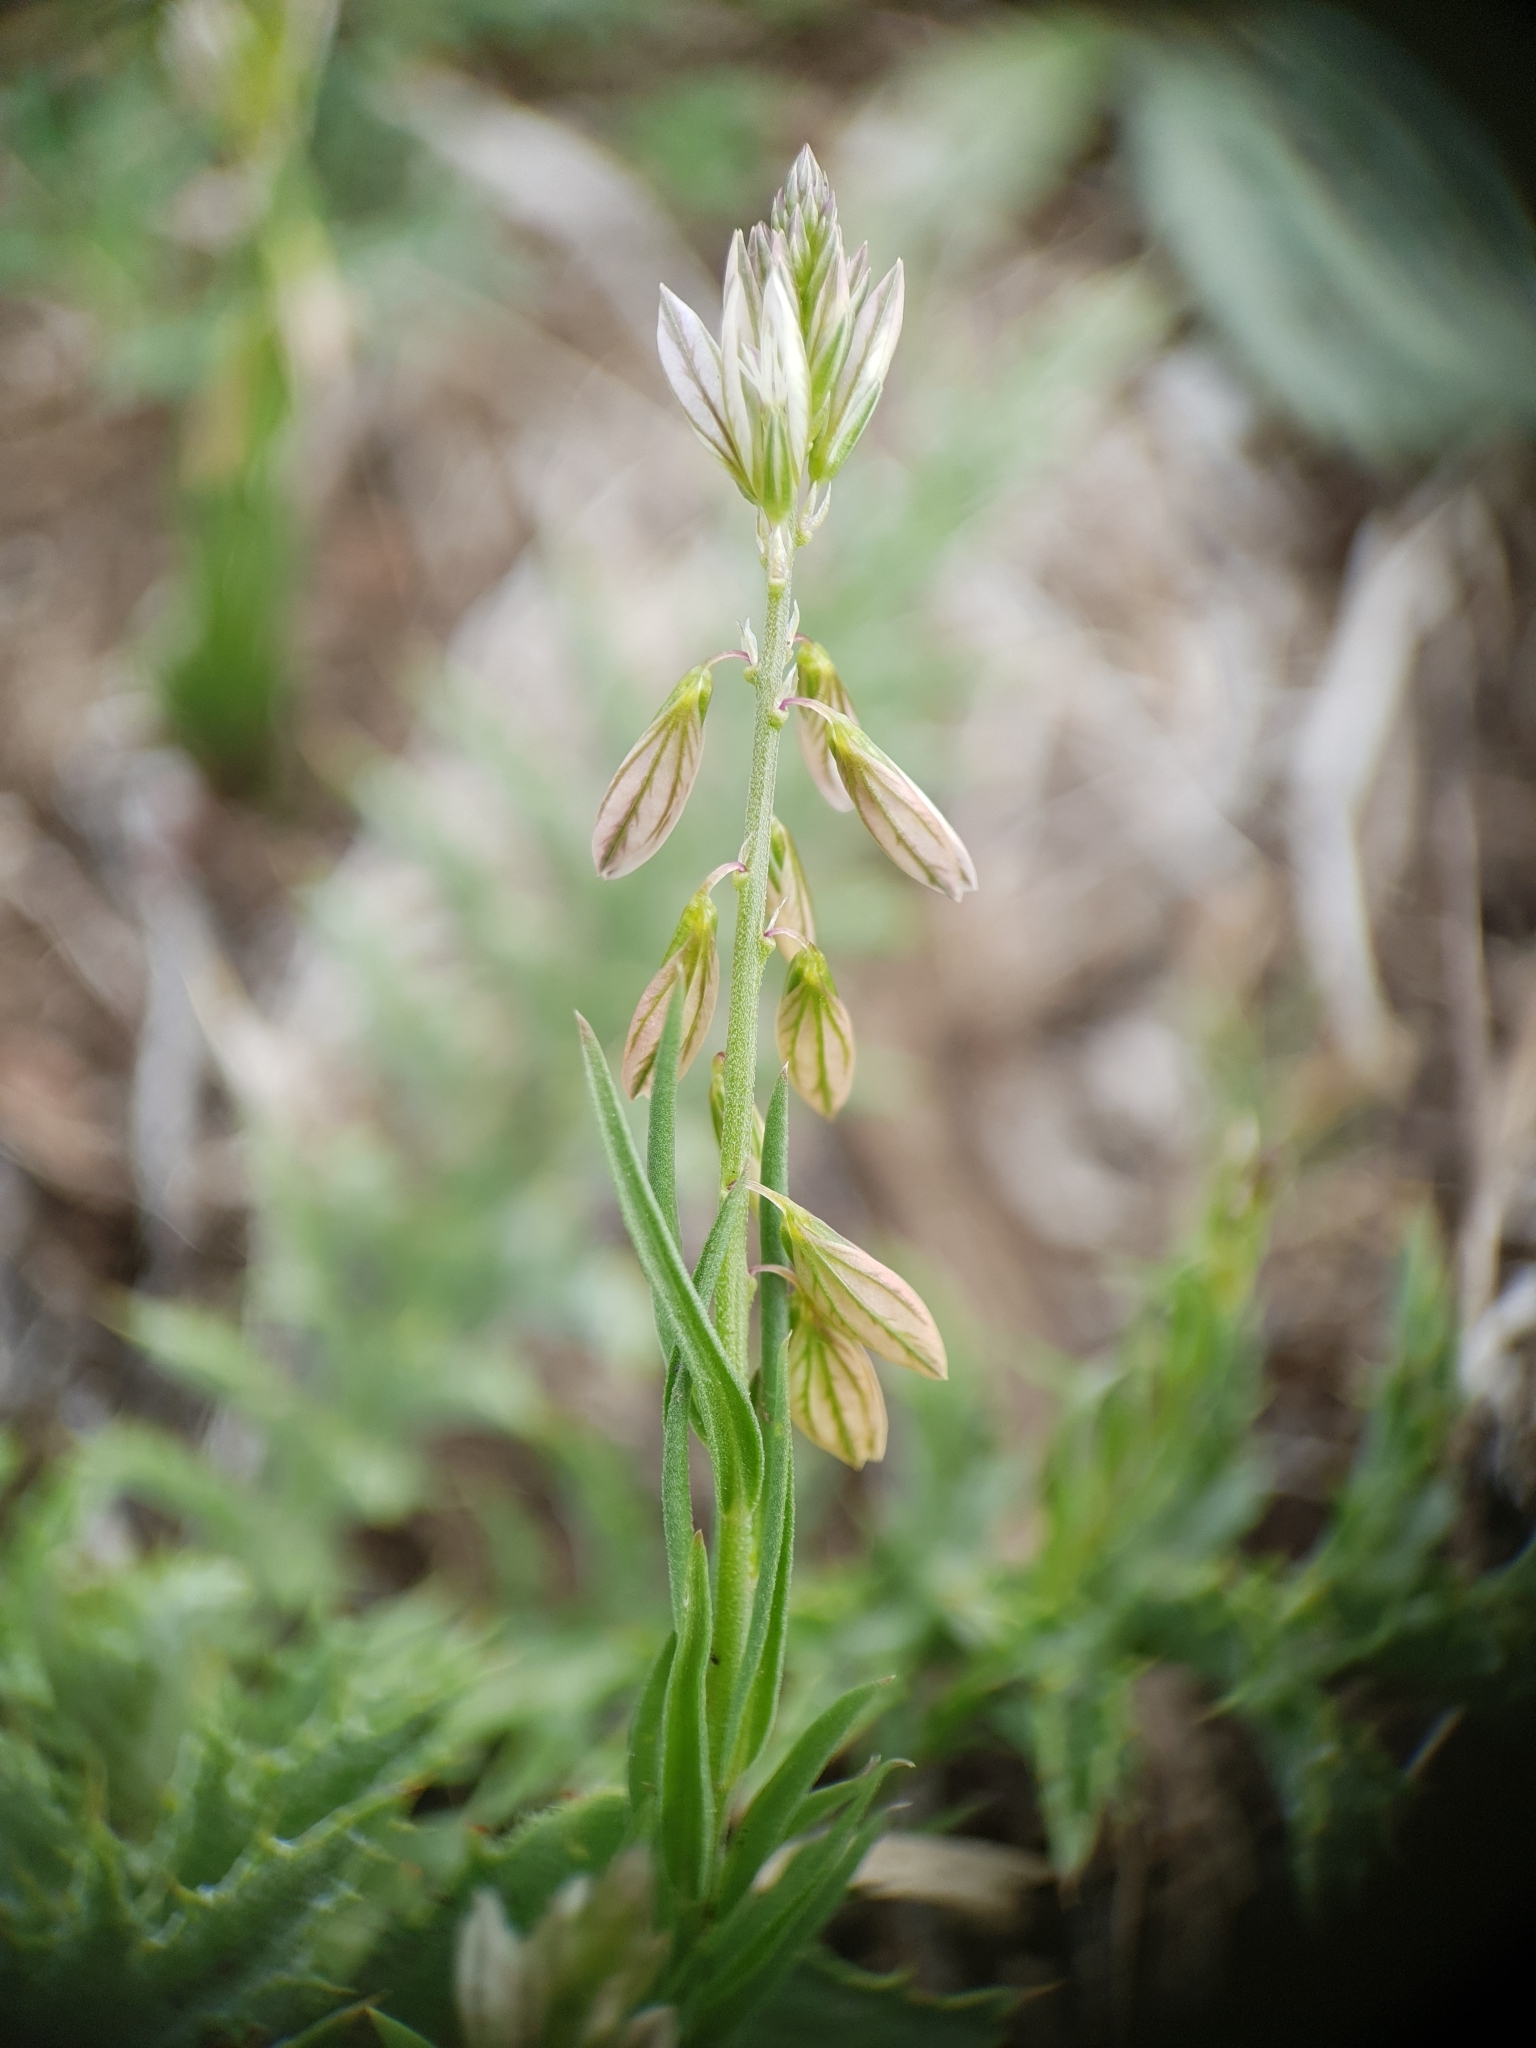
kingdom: Plantae
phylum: Tracheophyta
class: Magnoliopsida
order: Fabales
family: Polygalaceae
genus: Polygala
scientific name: Polygala monspeliaca
